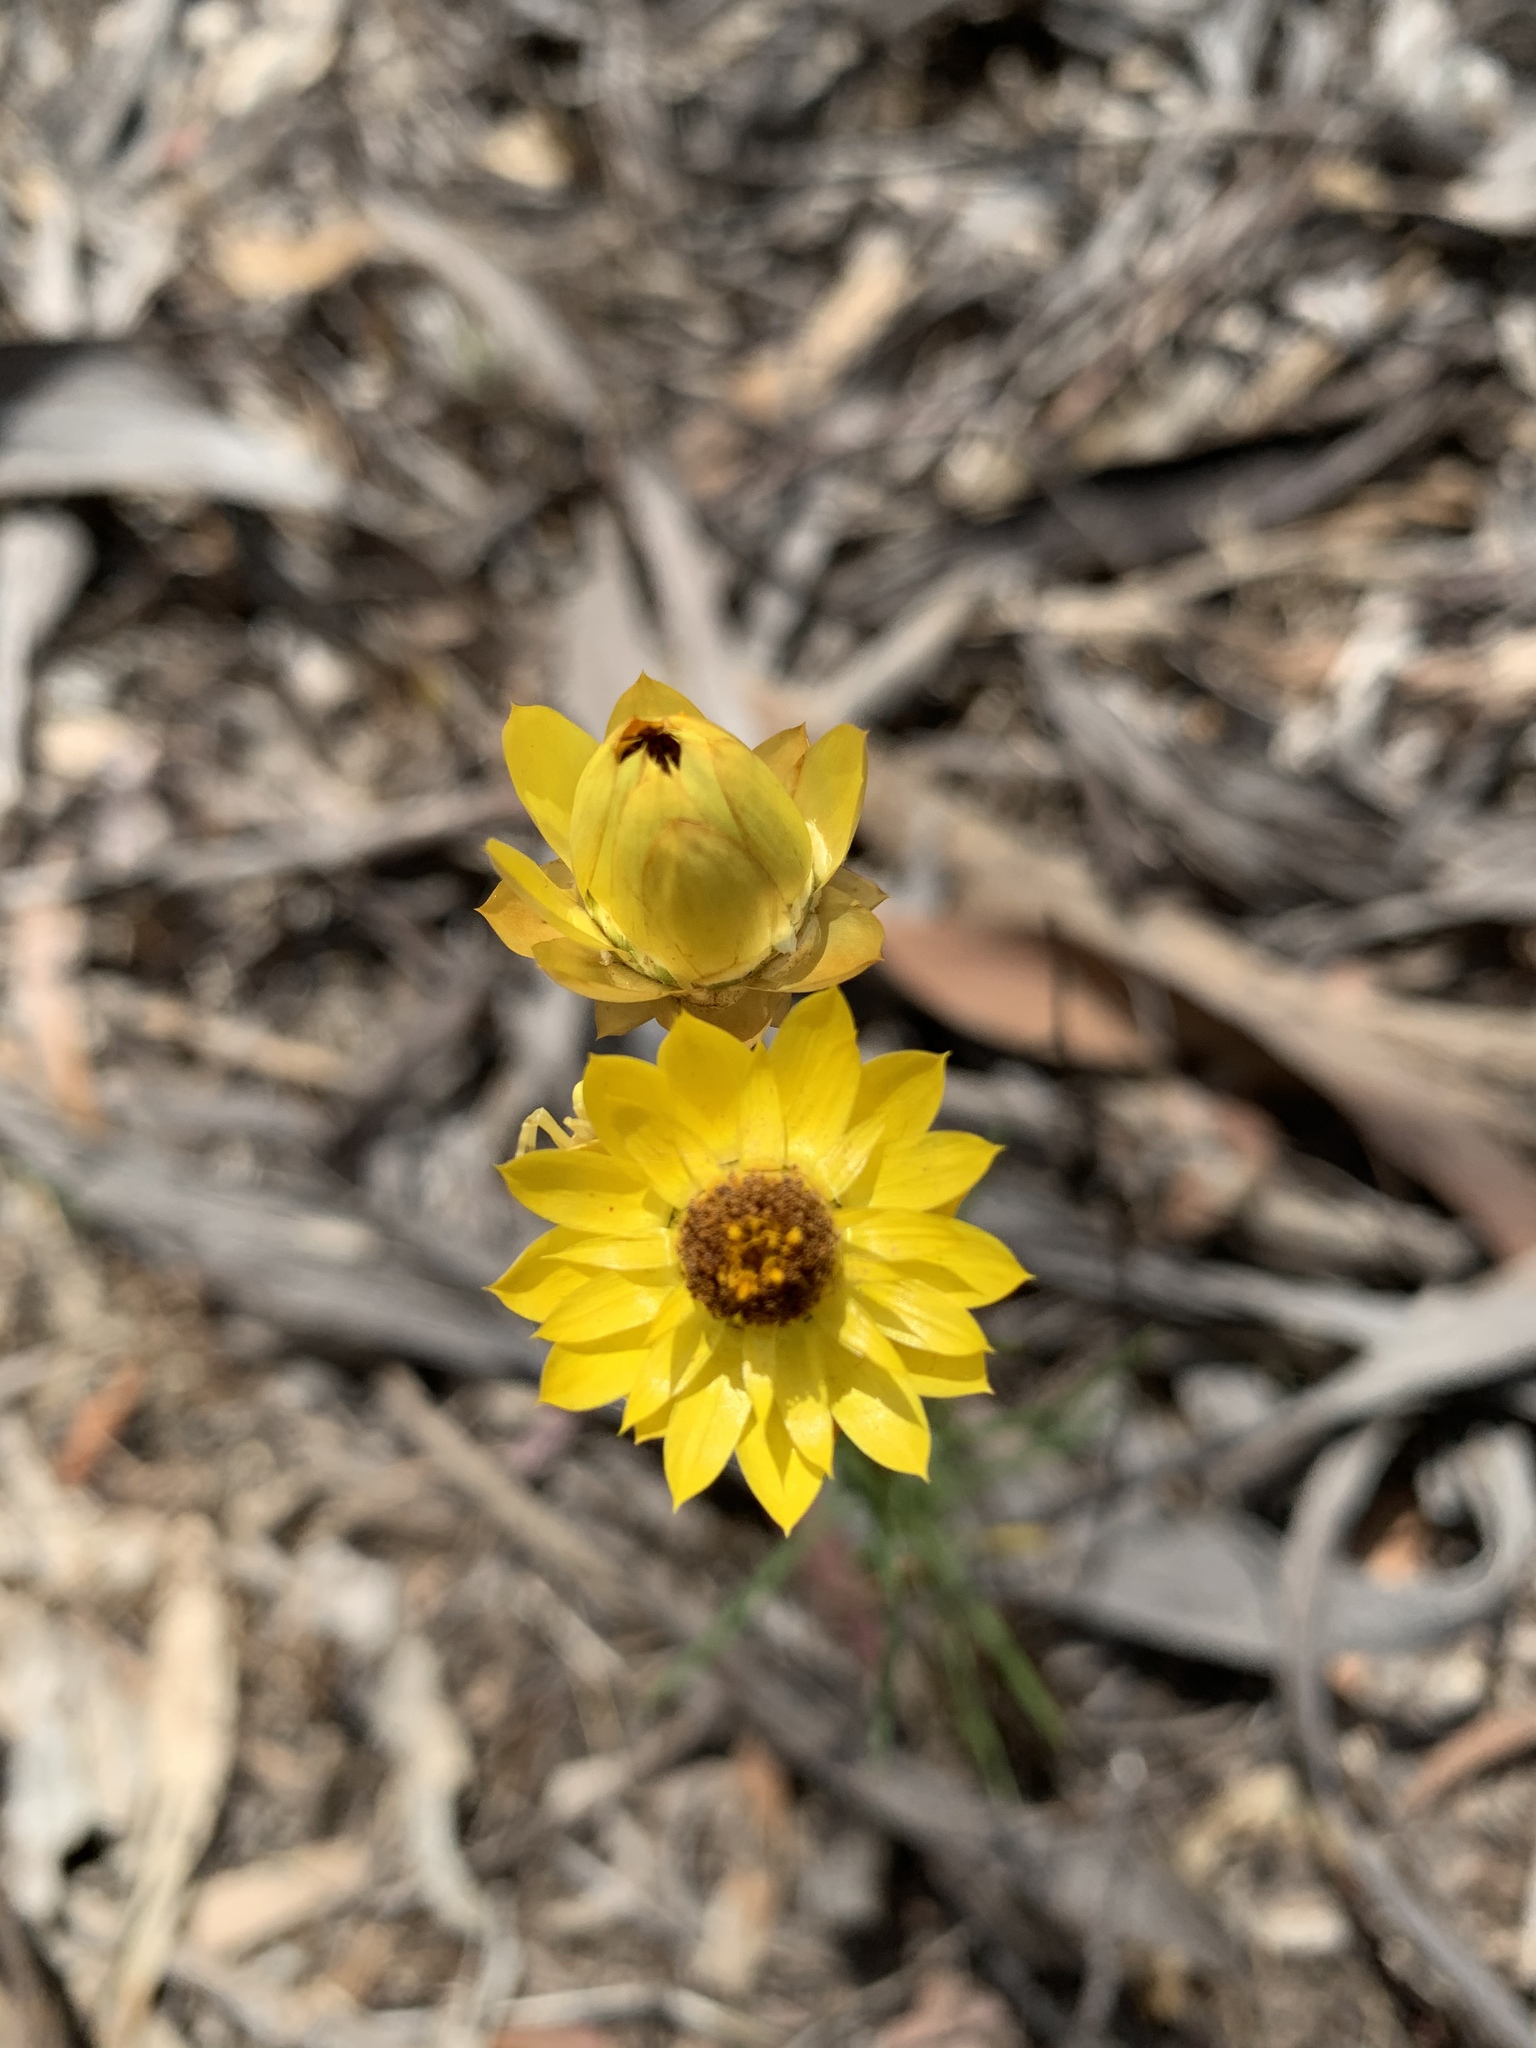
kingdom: Plantae
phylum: Tracheophyta
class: Magnoliopsida
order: Asterales
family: Asteraceae
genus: Xerochrysum
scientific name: Xerochrysum viscosum
